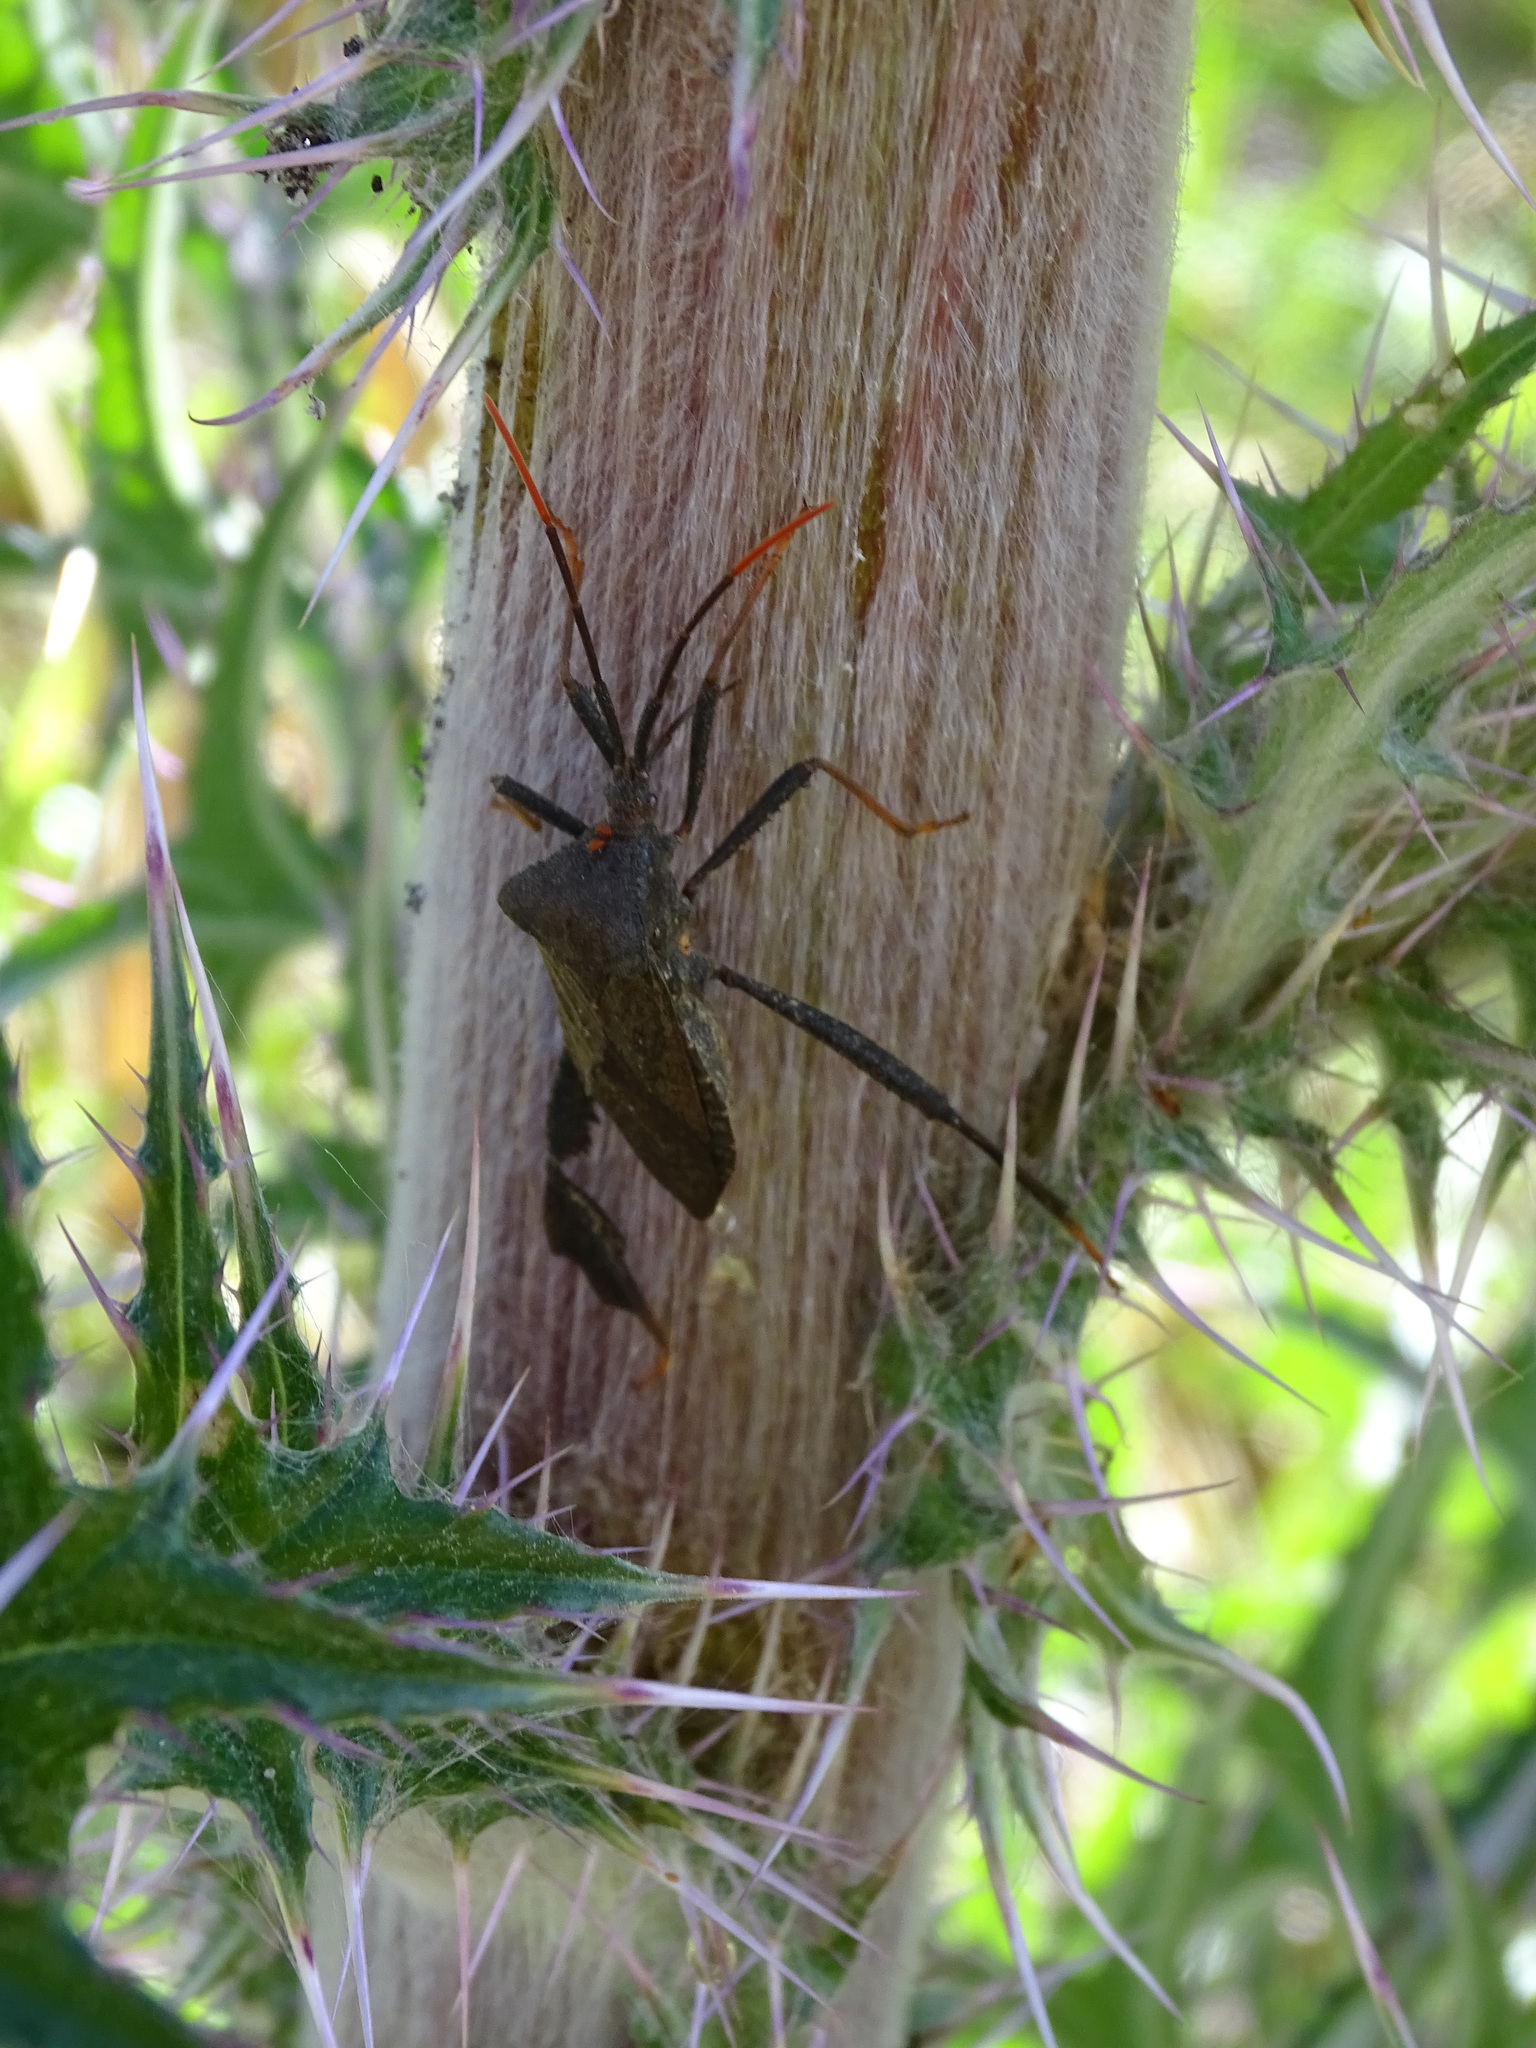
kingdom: Animalia
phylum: Arthropoda
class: Insecta
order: Hemiptera
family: Coreidae
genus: Acanthocephala
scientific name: Acanthocephala terminalis
